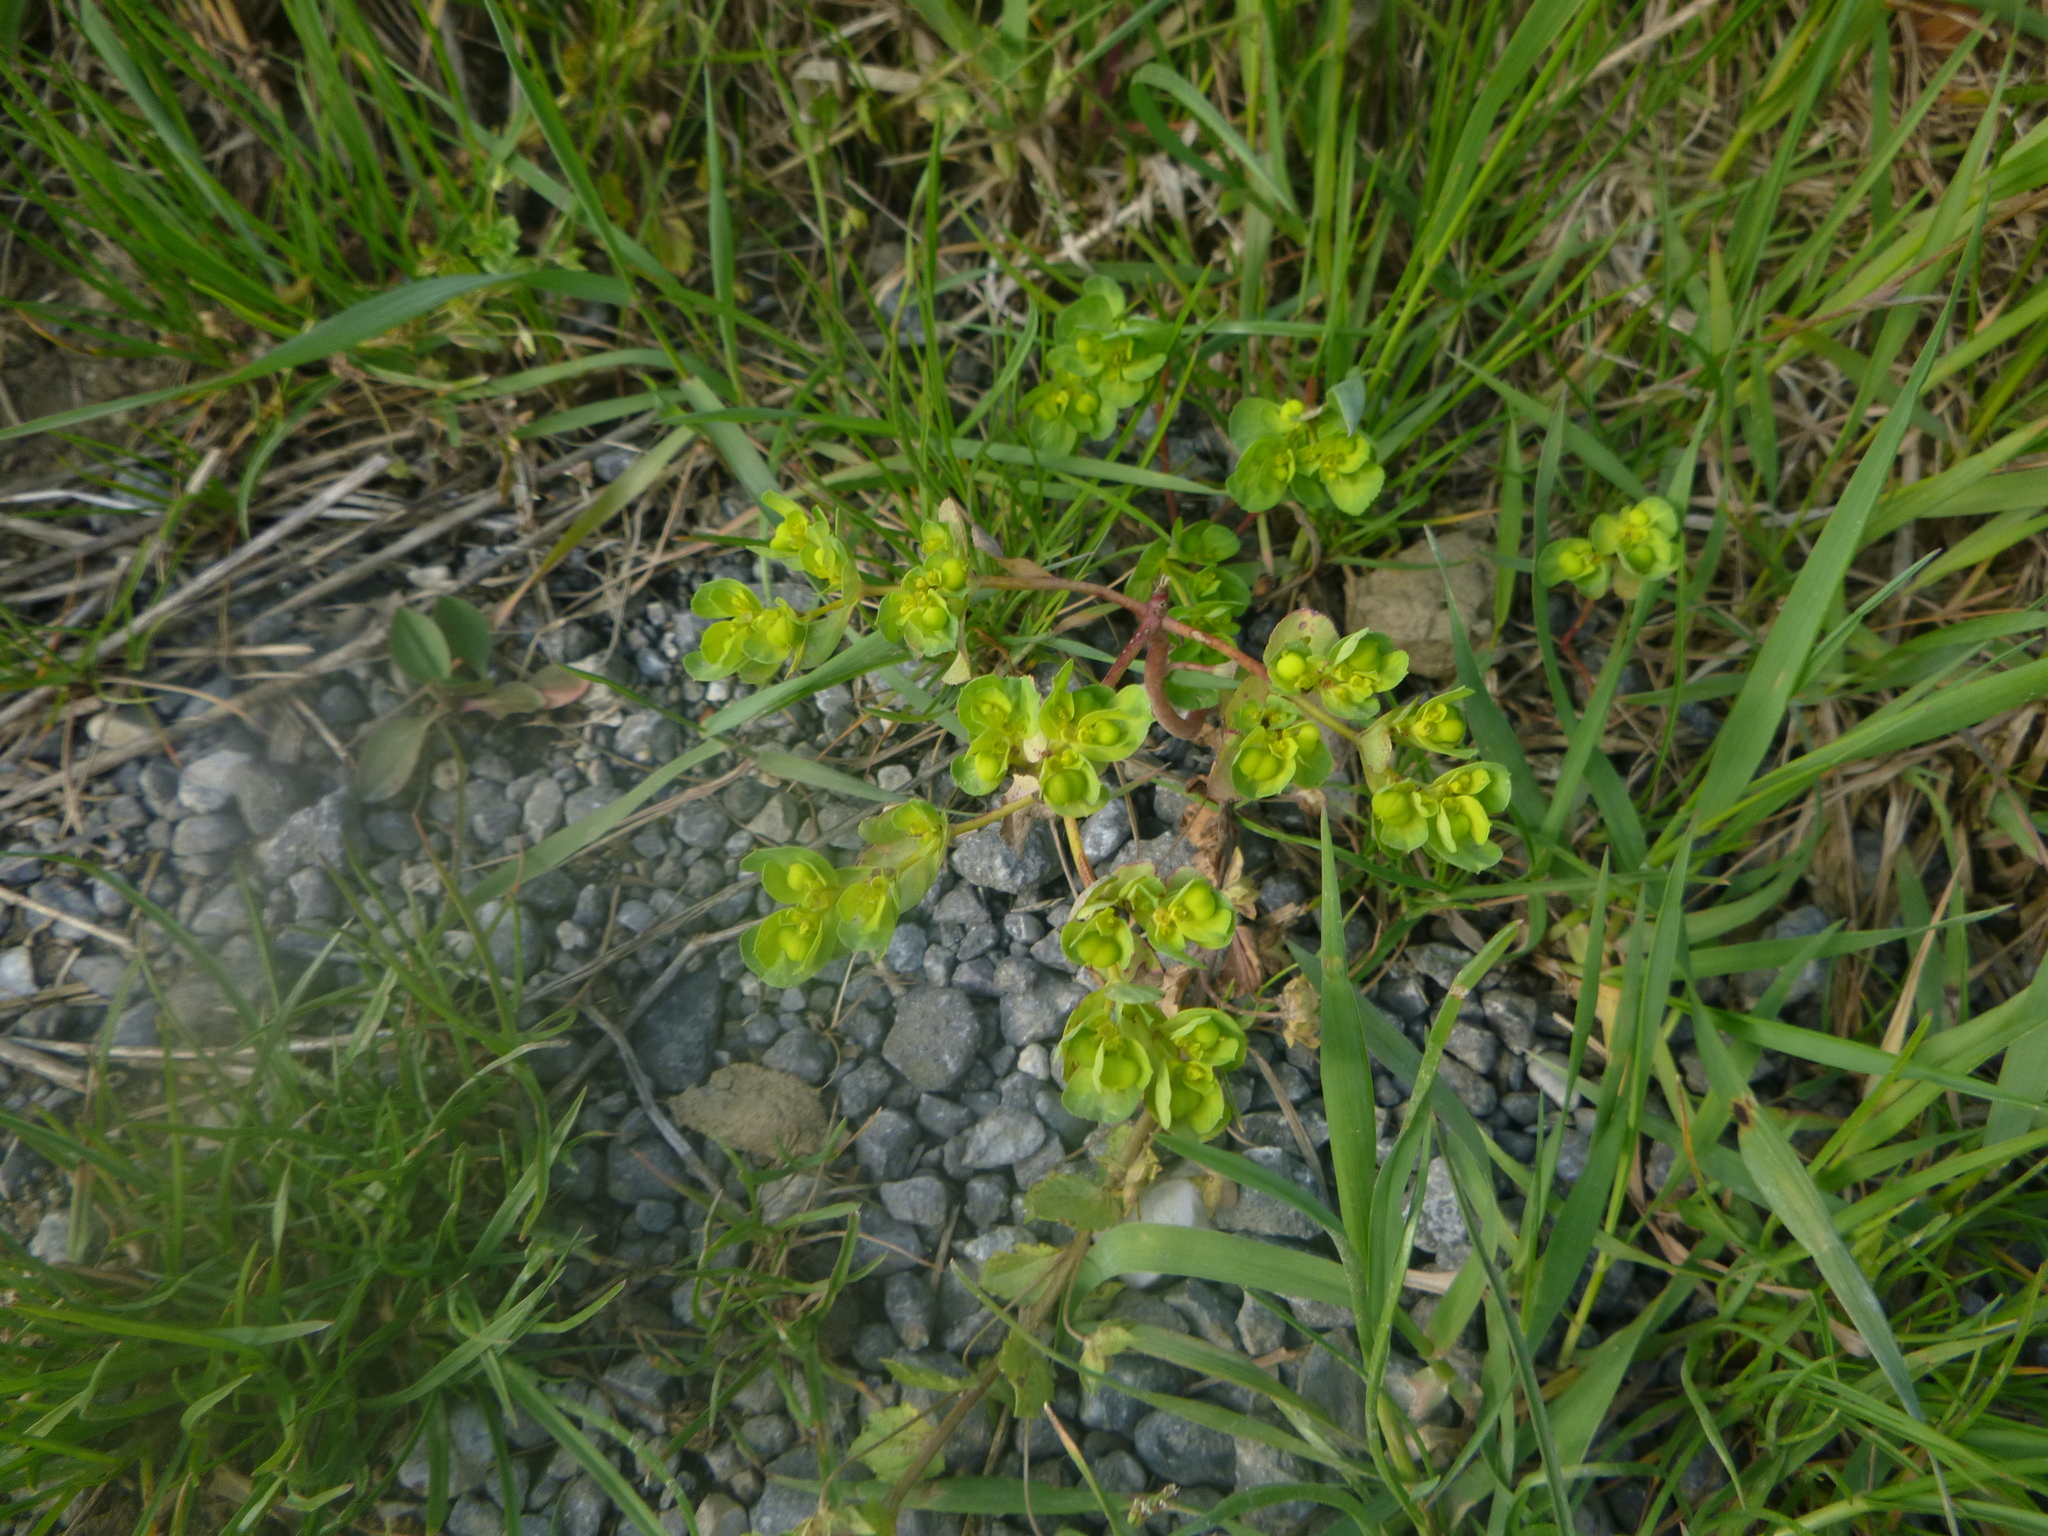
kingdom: Plantae
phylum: Tracheophyta
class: Magnoliopsida
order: Malpighiales
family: Euphorbiaceae
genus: Euphorbia
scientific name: Euphorbia helioscopia
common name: Sun spurge
